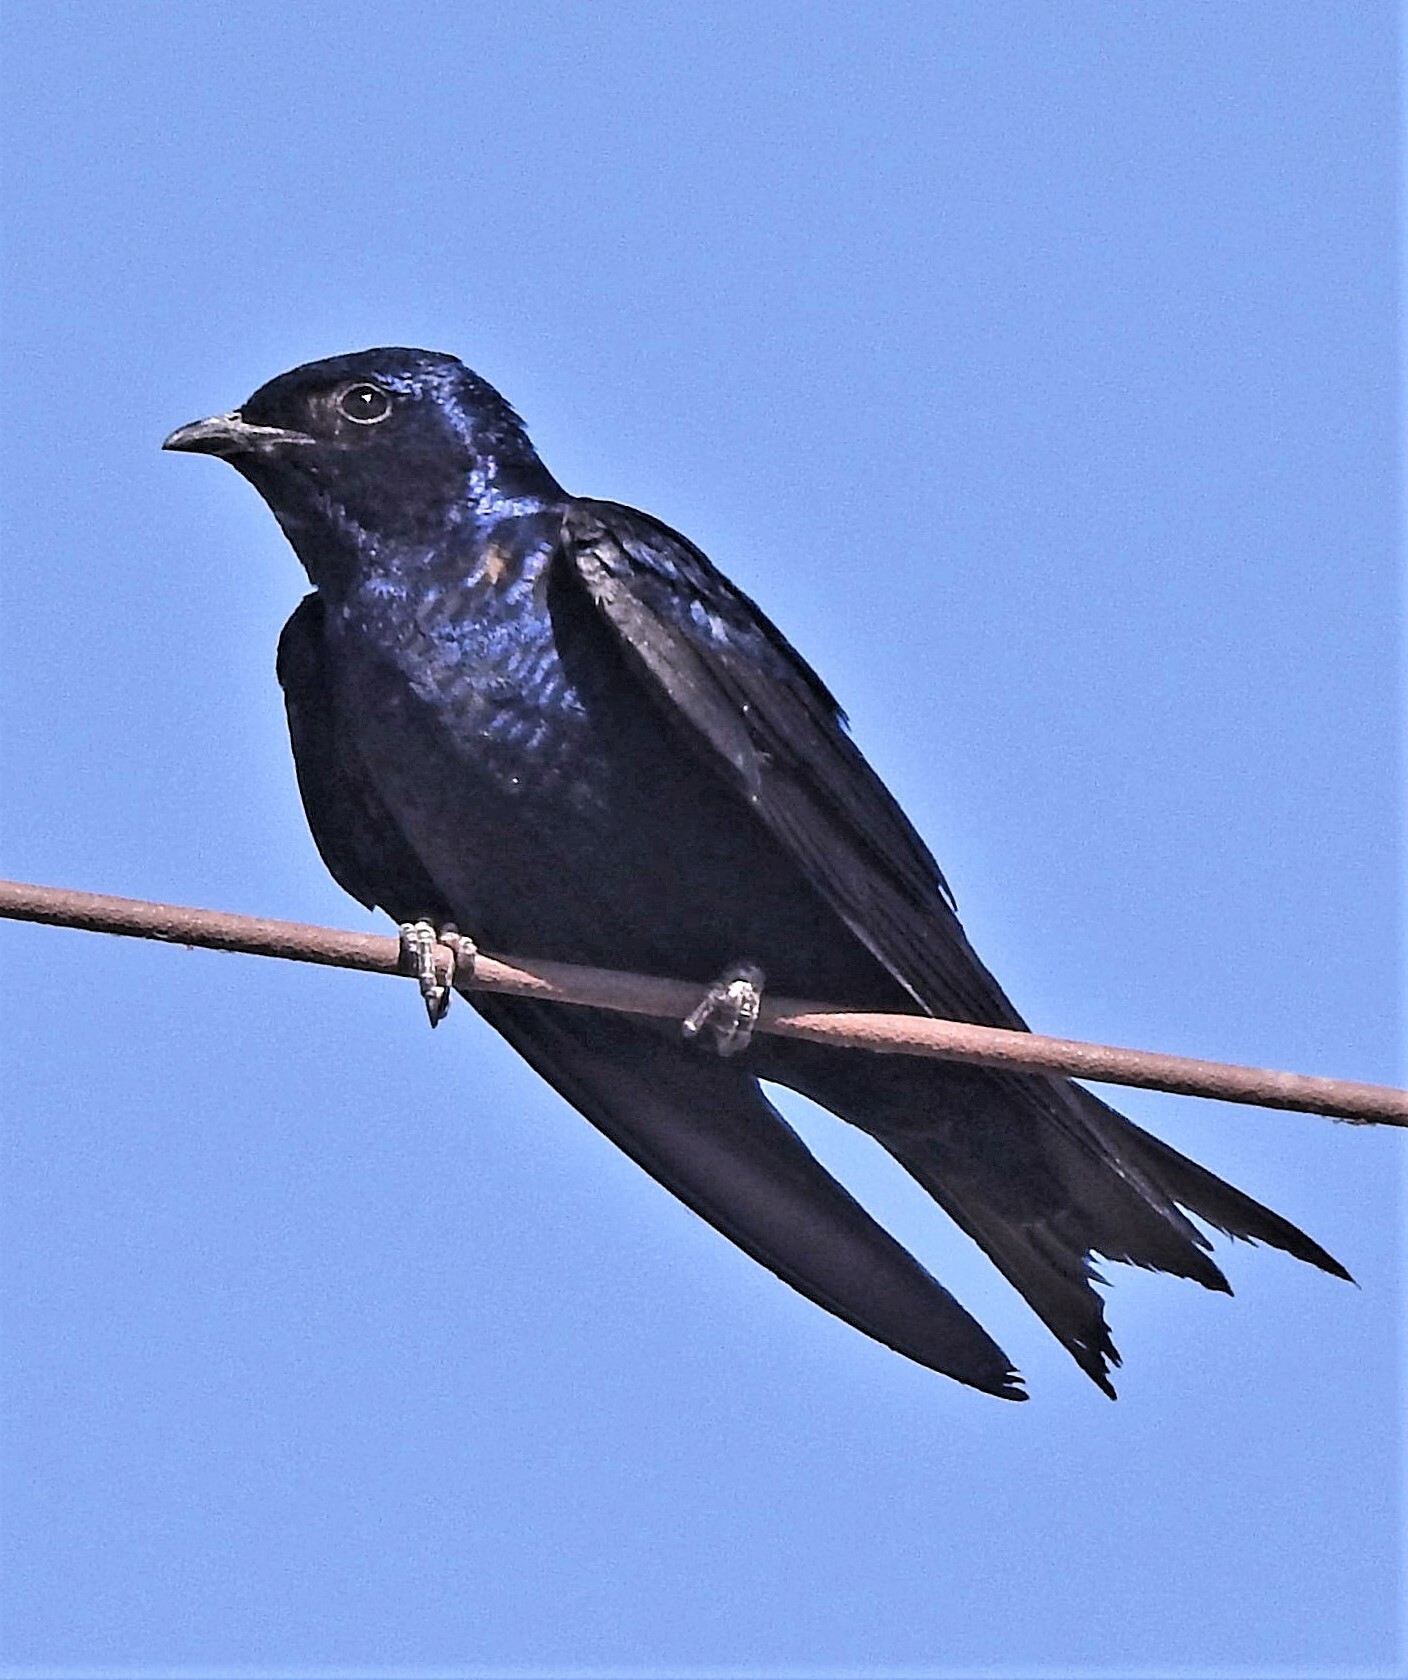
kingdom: Animalia
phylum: Chordata
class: Aves
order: Passeriformes
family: Hirundinidae
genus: Progne
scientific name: Progne elegans
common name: Southern martin
